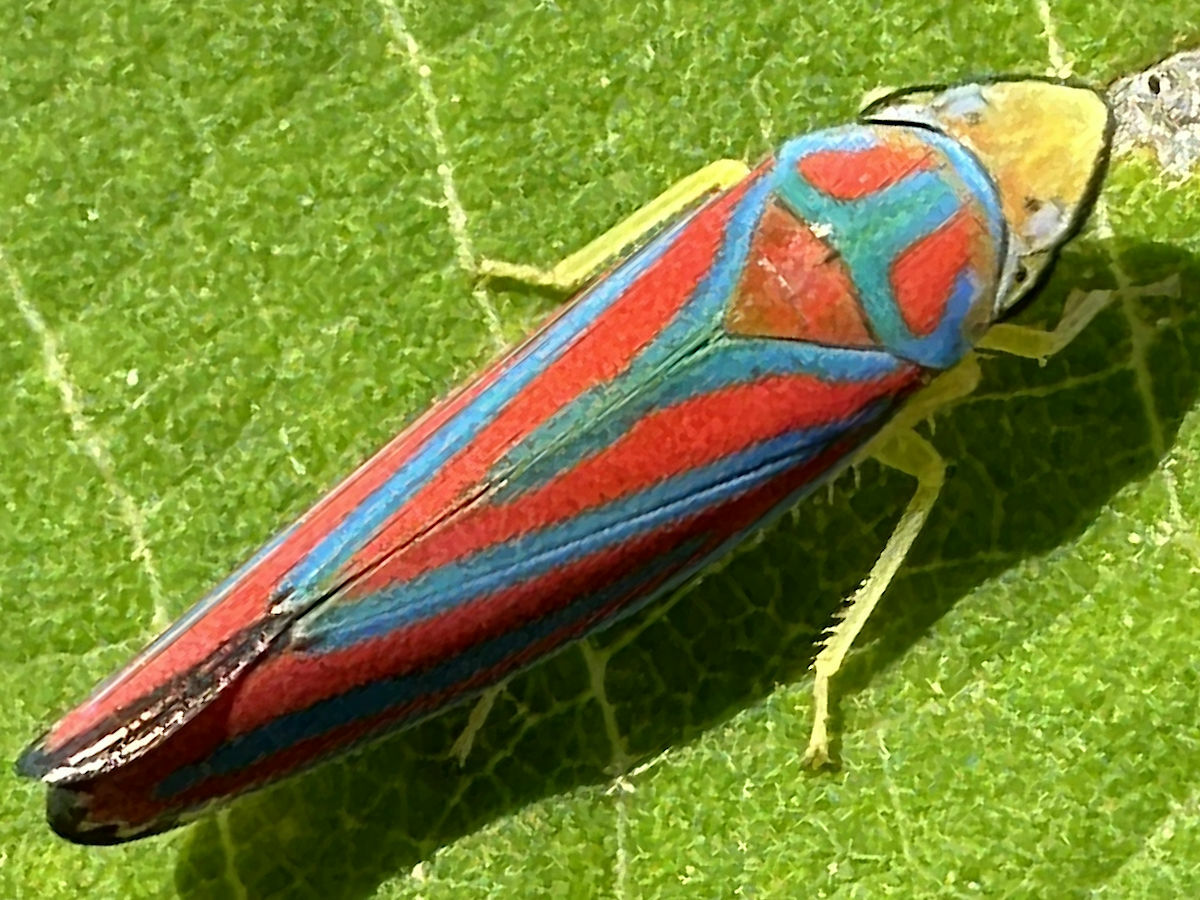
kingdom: Animalia
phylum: Arthropoda
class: Insecta
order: Hemiptera
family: Cicadellidae
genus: Graphocephala
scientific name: Graphocephala coccinea
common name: Candy-striped leafhopper
